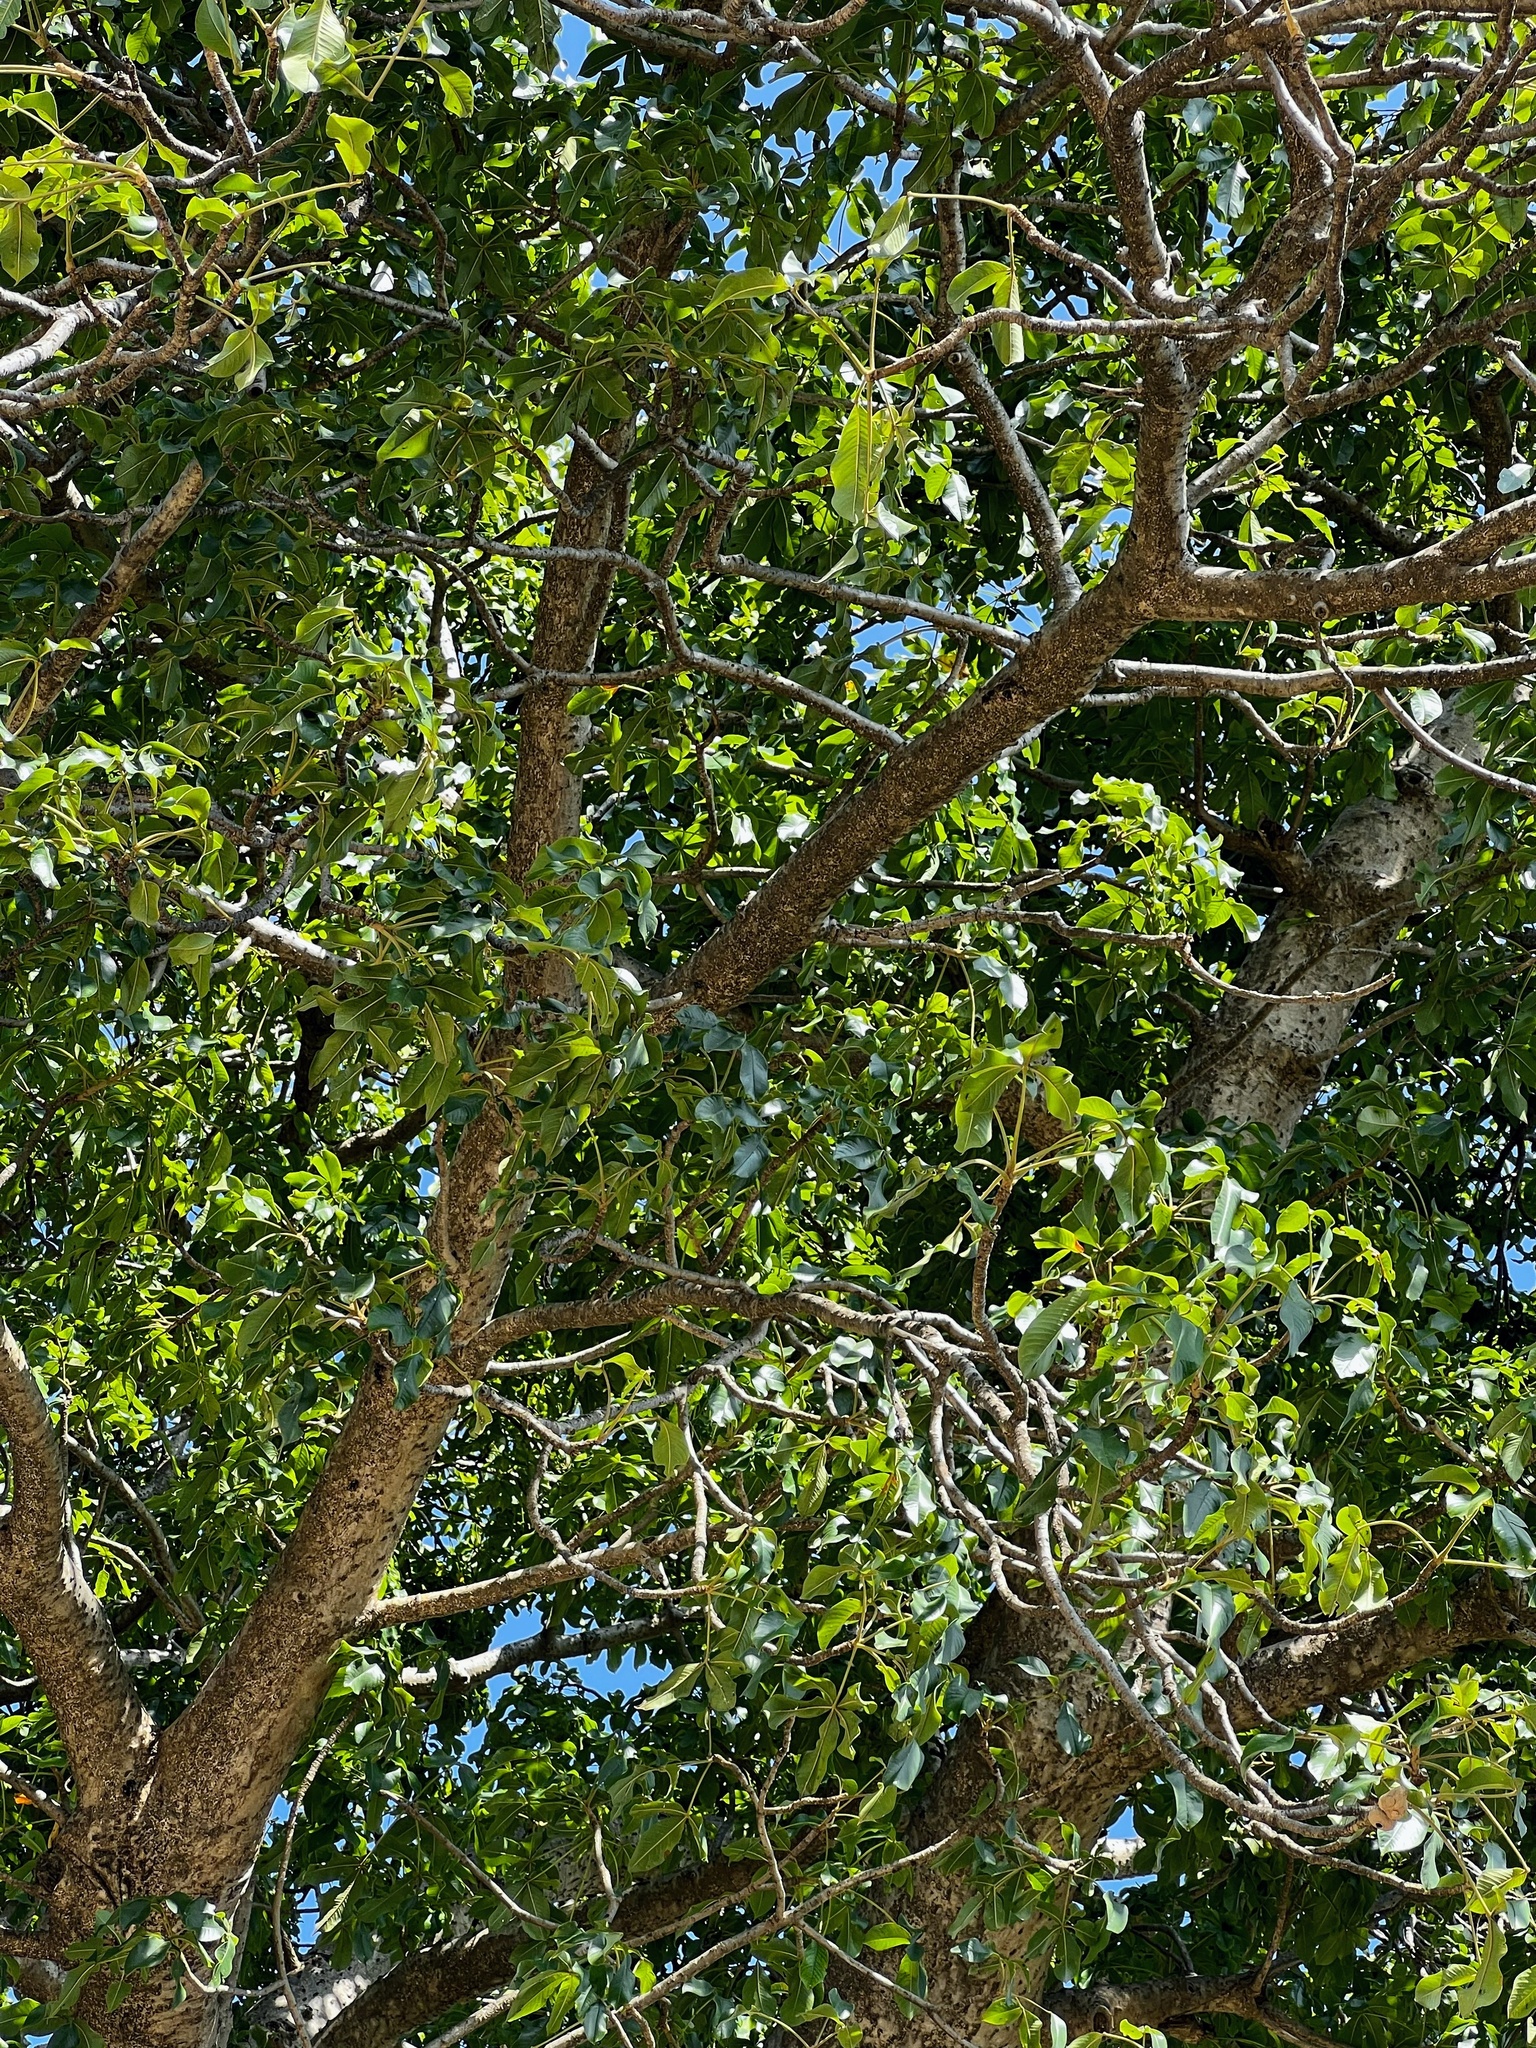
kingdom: Plantae
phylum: Tracheophyta
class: Magnoliopsida
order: Malvales
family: Malvaceae
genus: Adansonia
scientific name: Adansonia digitata
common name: Dead-rat-tree
